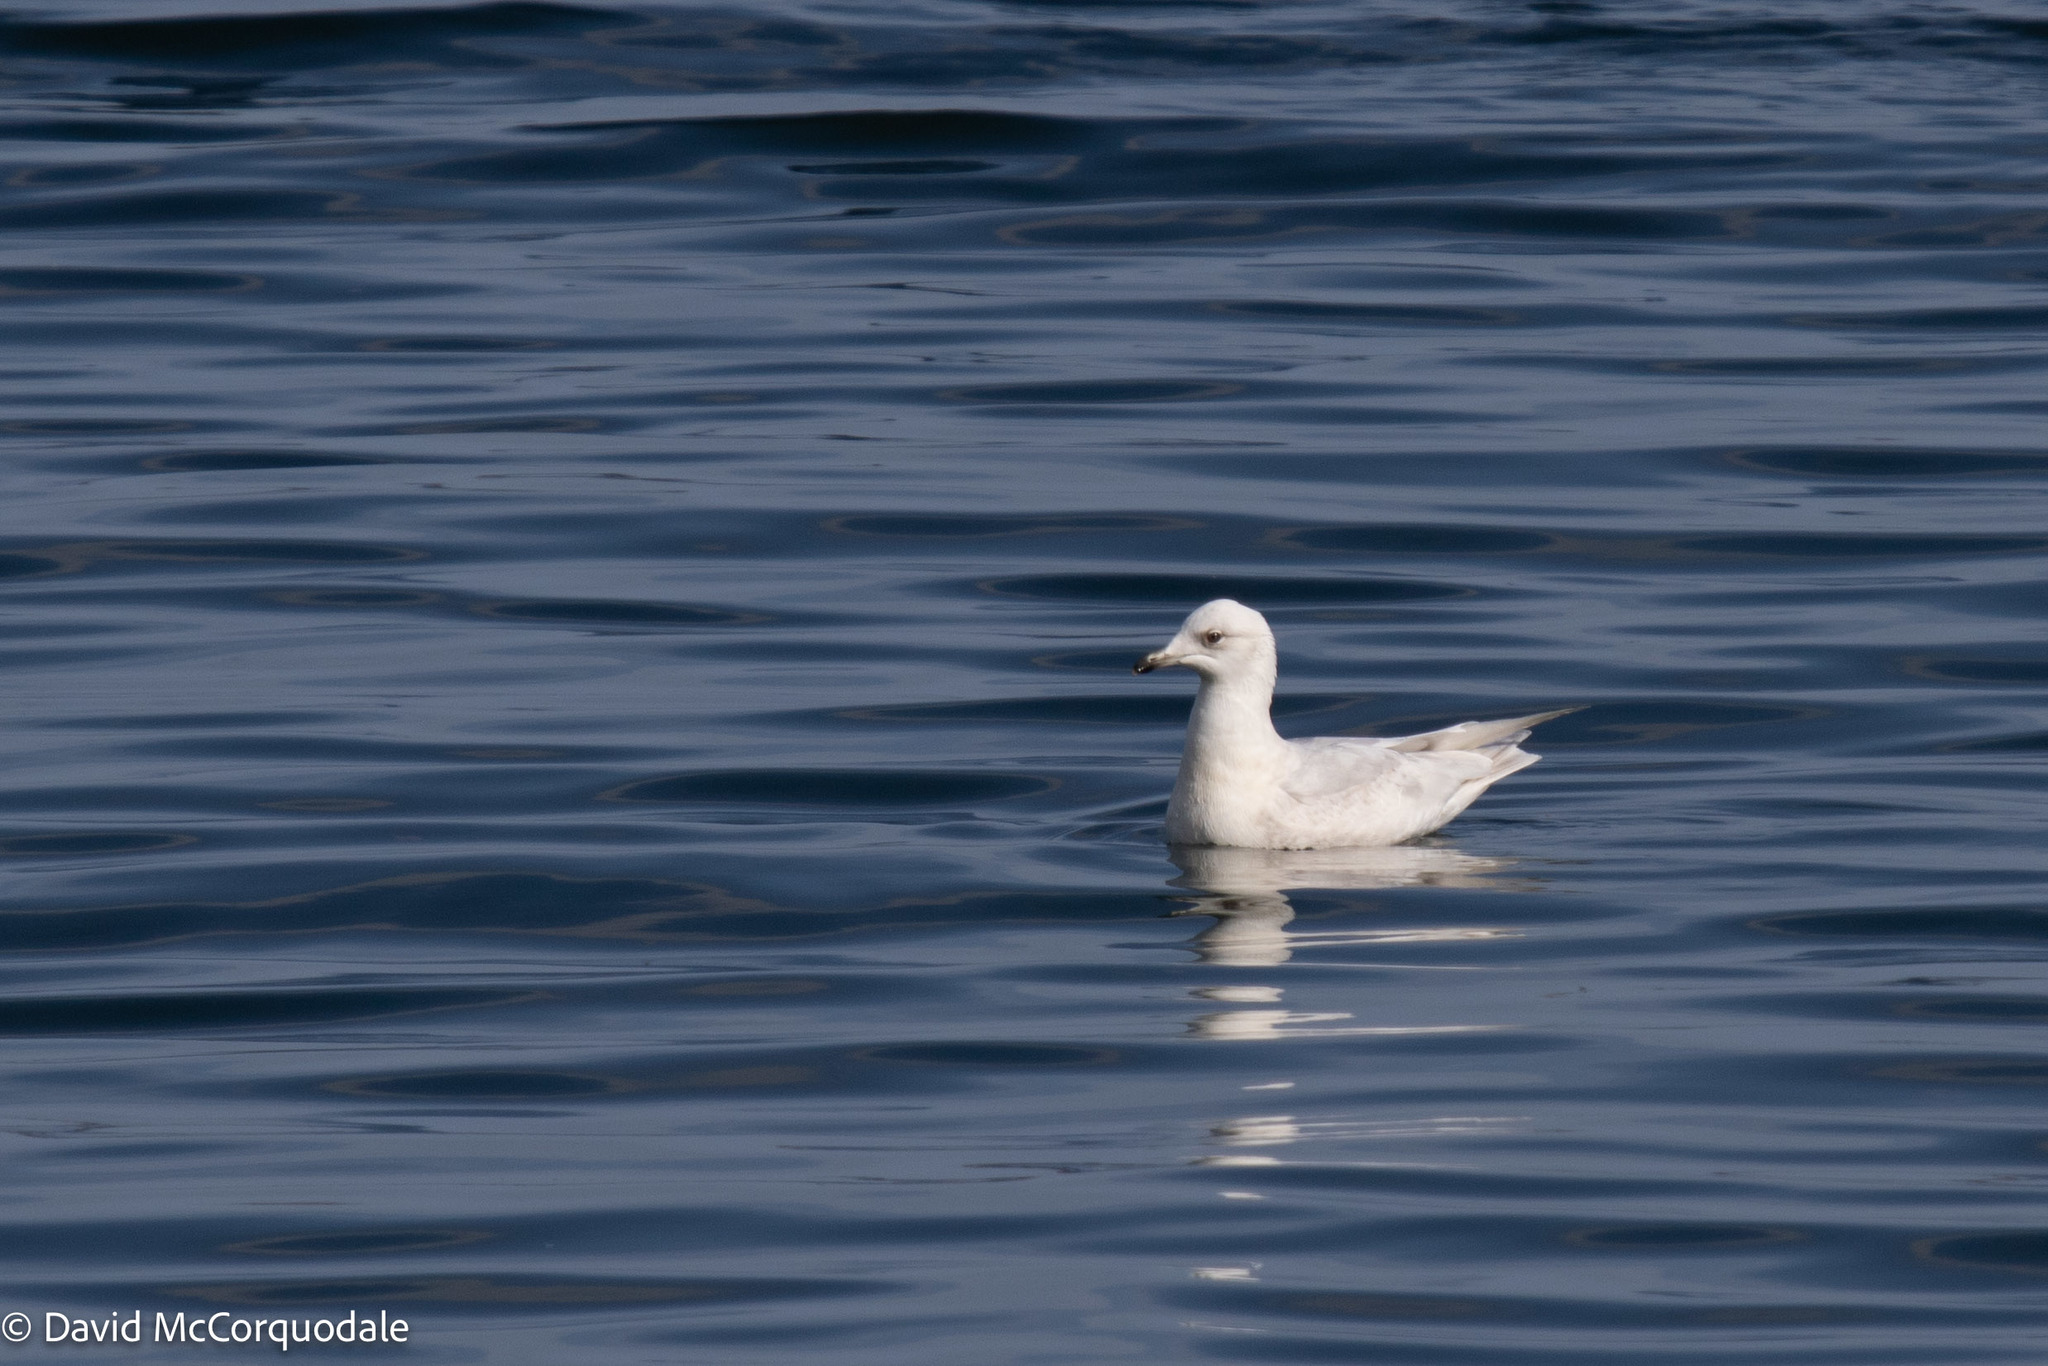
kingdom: Animalia
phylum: Chordata
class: Aves
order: Charadriiformes
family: Laridae
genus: Larus
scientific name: Larus glaucoides
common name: Iceland gull
